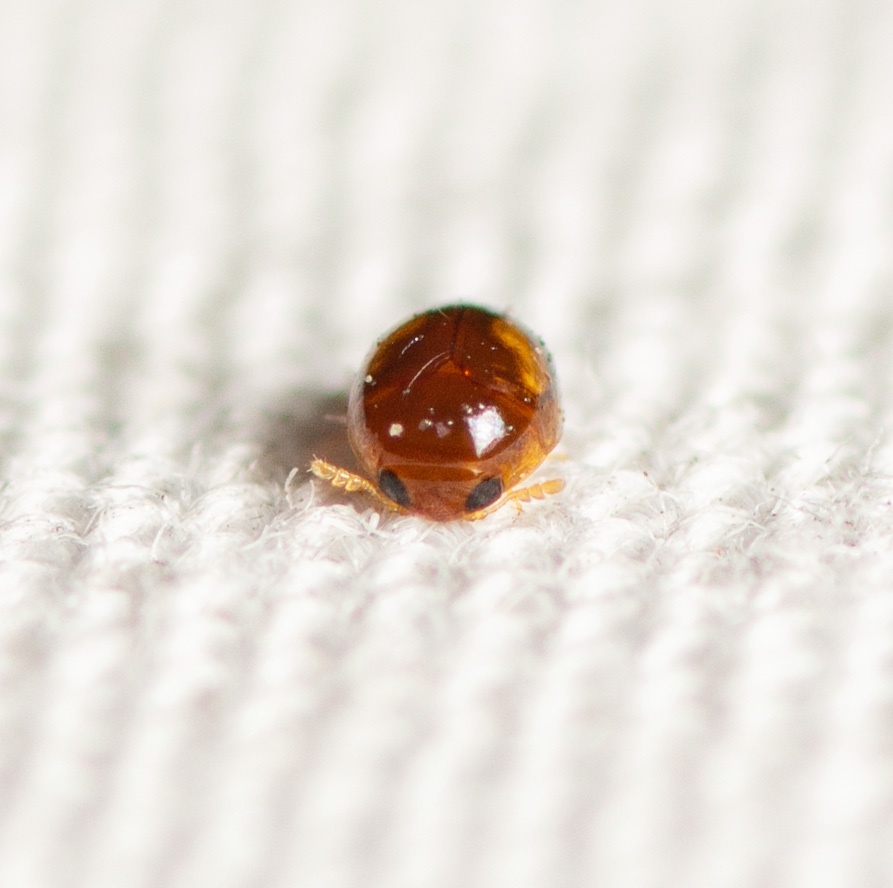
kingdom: Animalia
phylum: Arthropoda
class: Insecta
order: Coleoptera
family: Phalacridae
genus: Neolitochrus
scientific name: Neolitochrus
